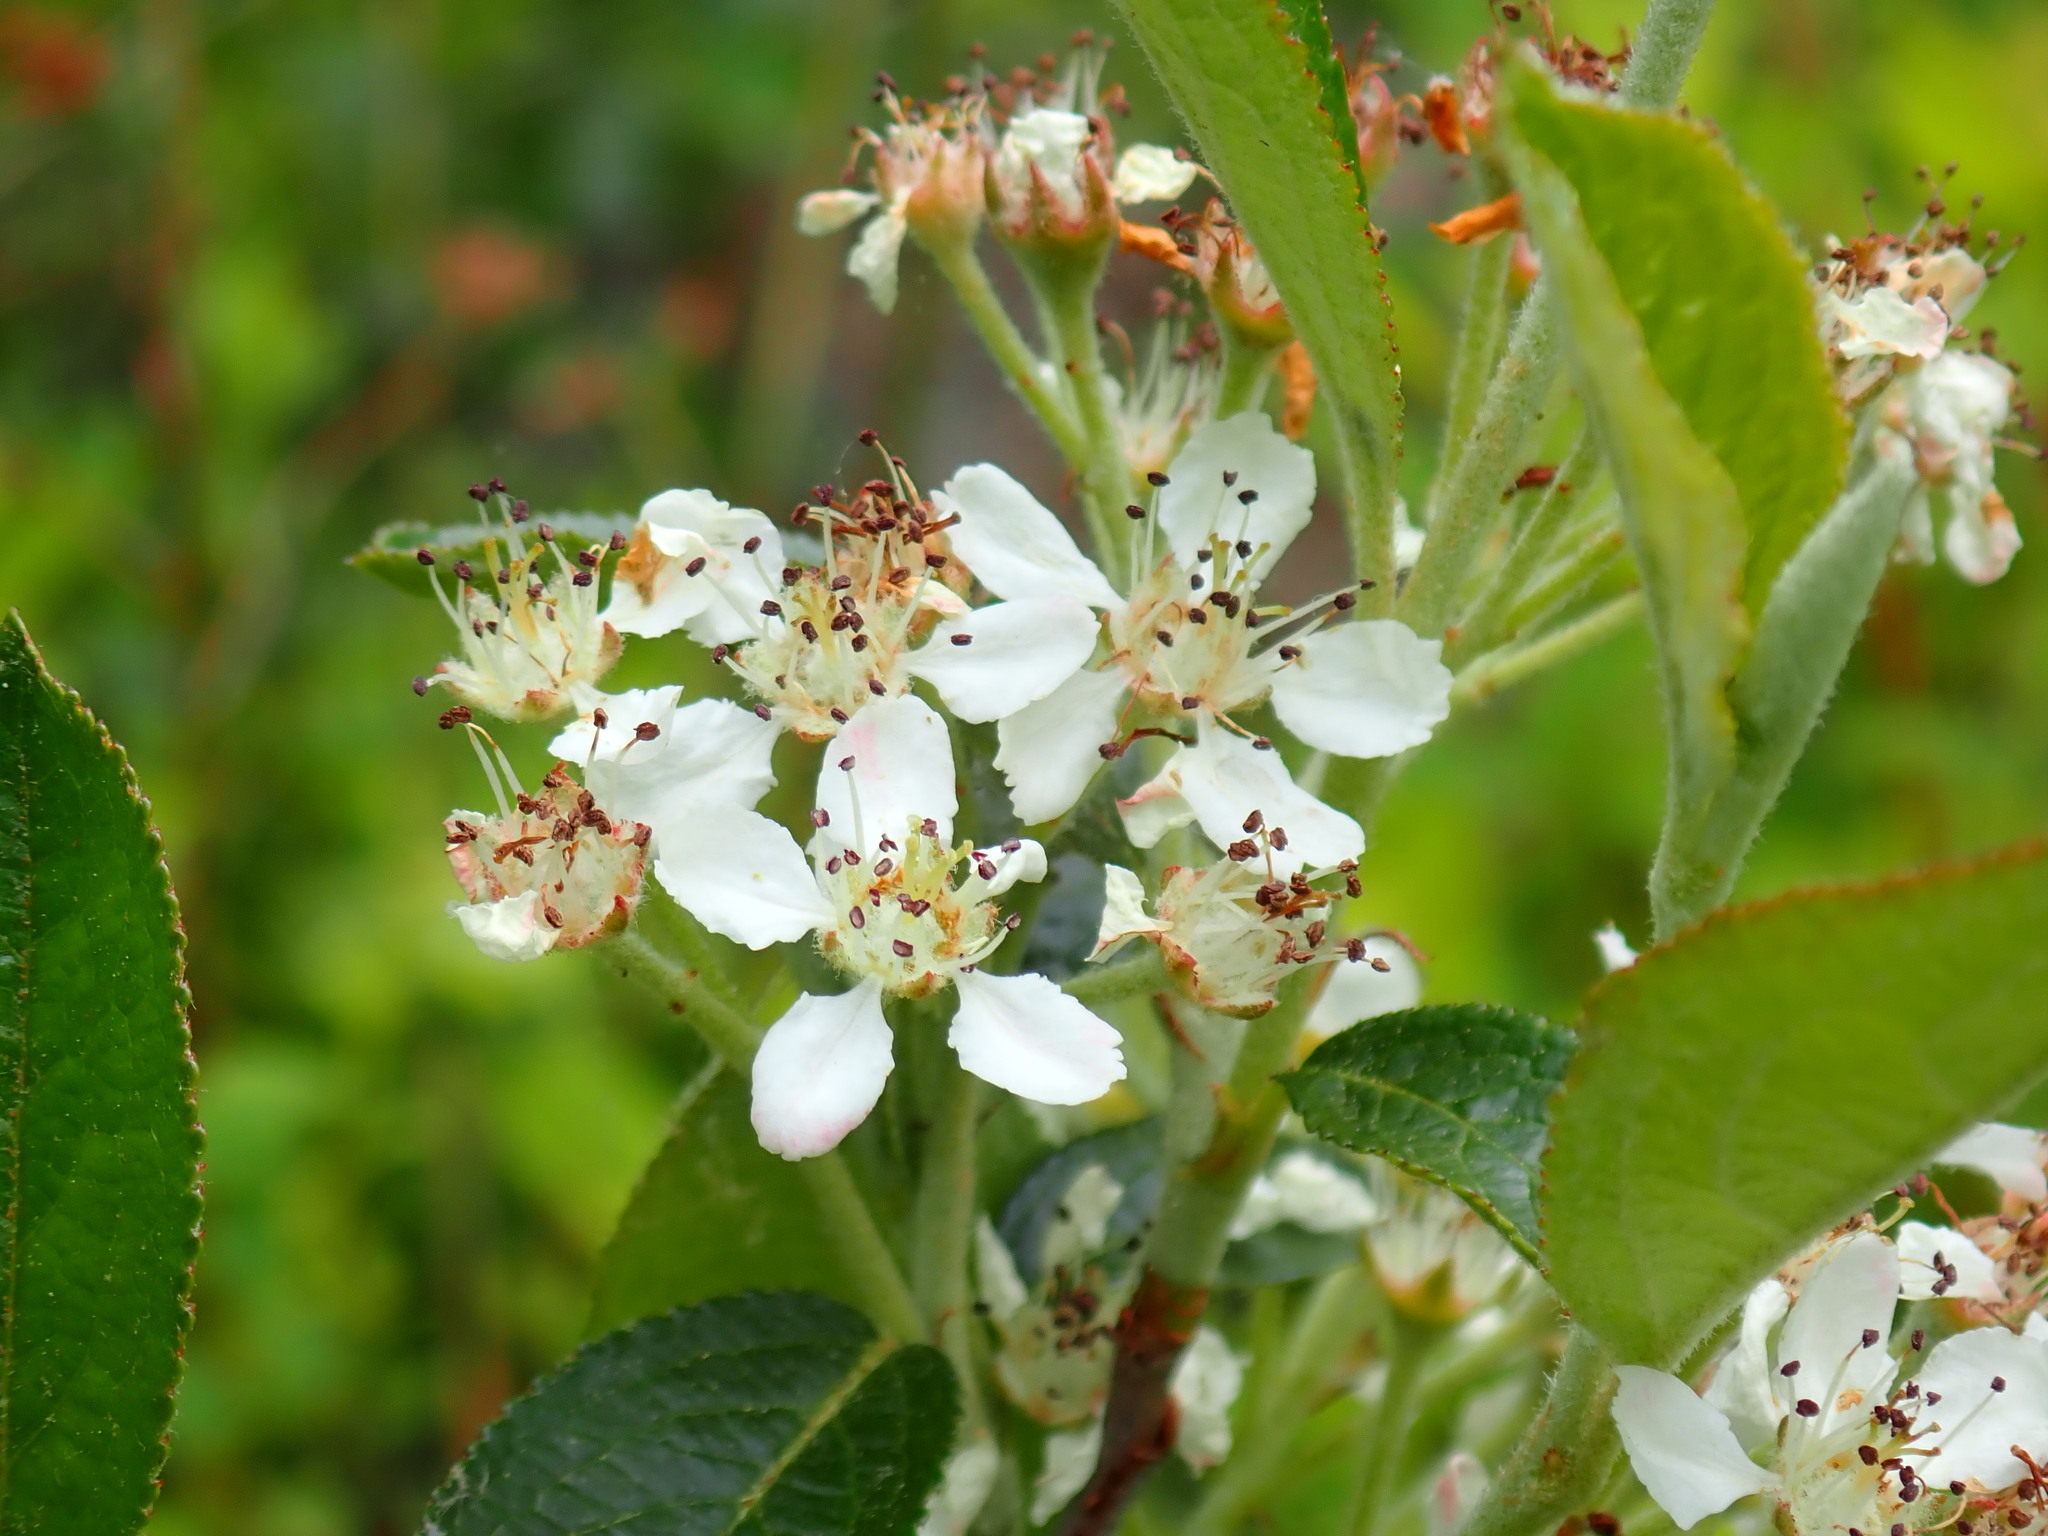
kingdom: Plantae
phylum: Tracheophyta
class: Magnoliopsida
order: Rosales
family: Rosaceae
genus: Aronia
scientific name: Aronia
